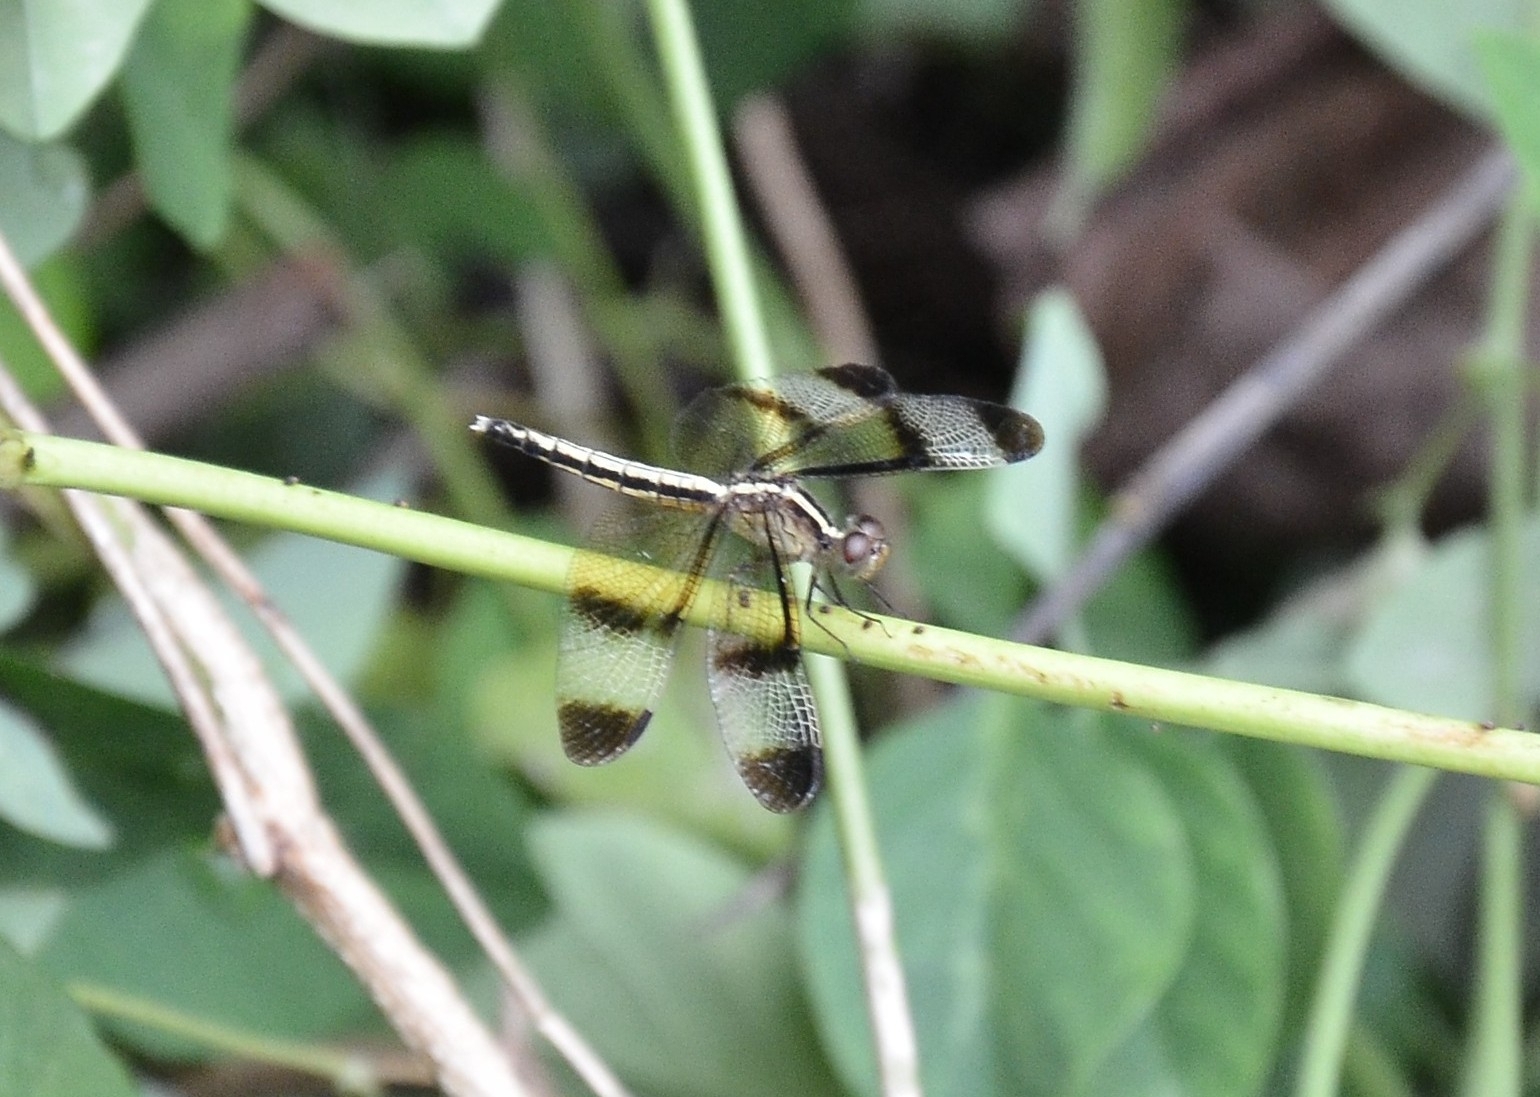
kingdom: Animalia
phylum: Arthropoda
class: Insecta
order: Odonata
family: Libellulidae
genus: Neurothemis
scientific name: Neurothemis tullia
